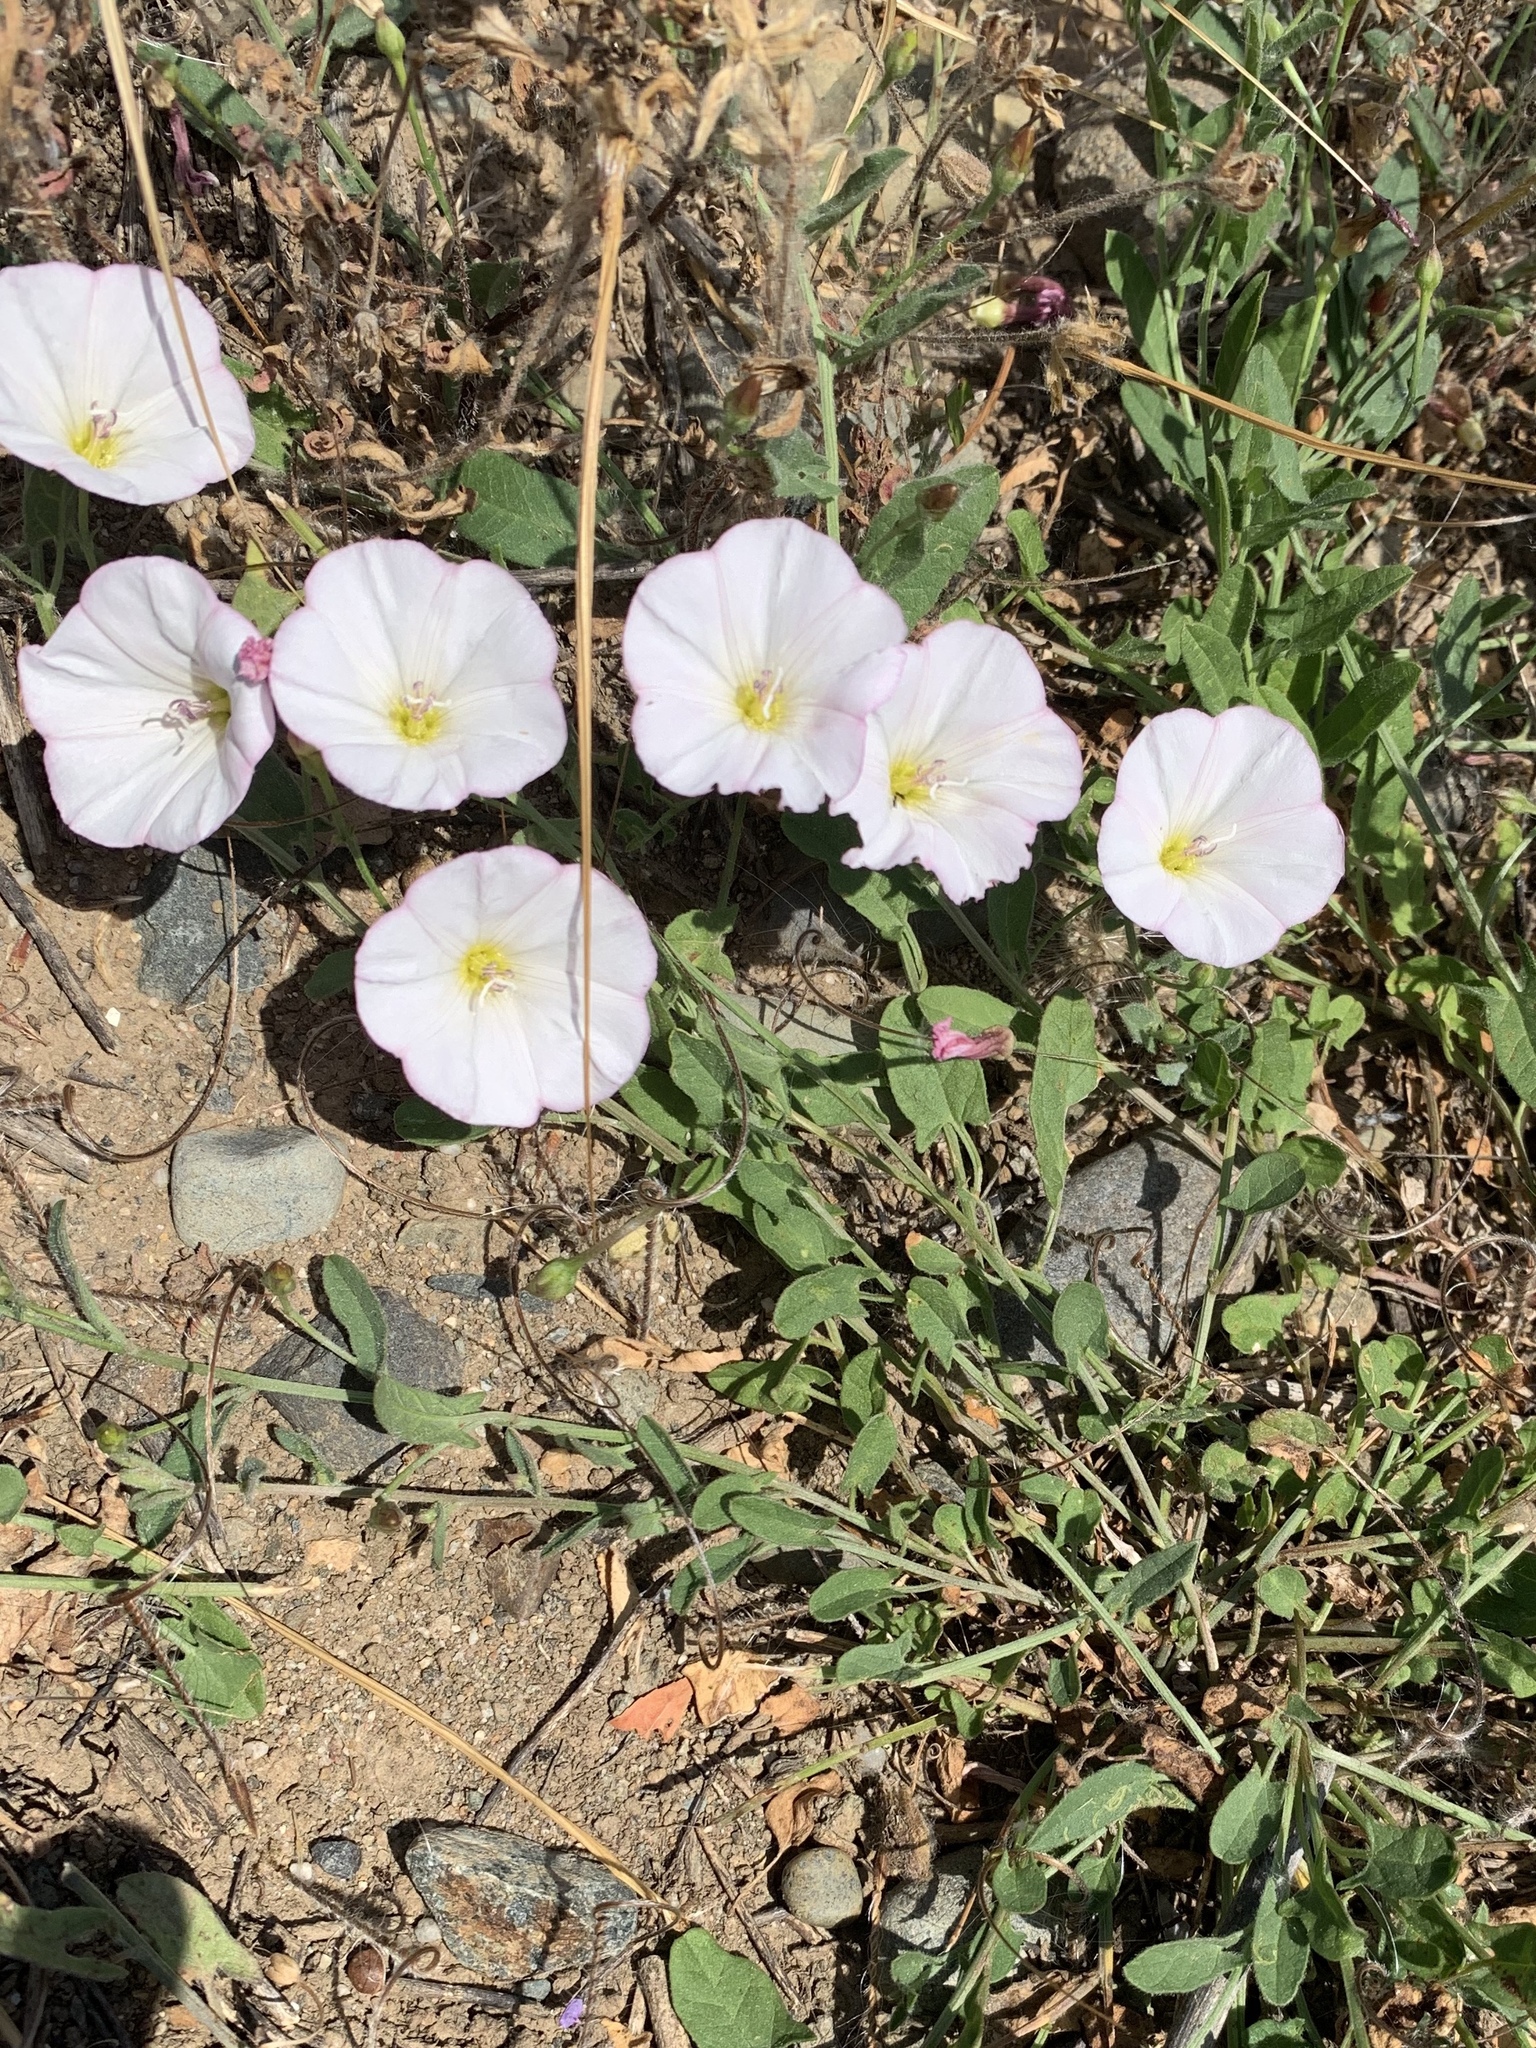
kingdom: Plantae
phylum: Tracheophyta
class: Magnoliopsida
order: Solanales
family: Convolvulaceae
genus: Convolvulus
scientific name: Convolvulus arvensis
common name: Field bindweed
